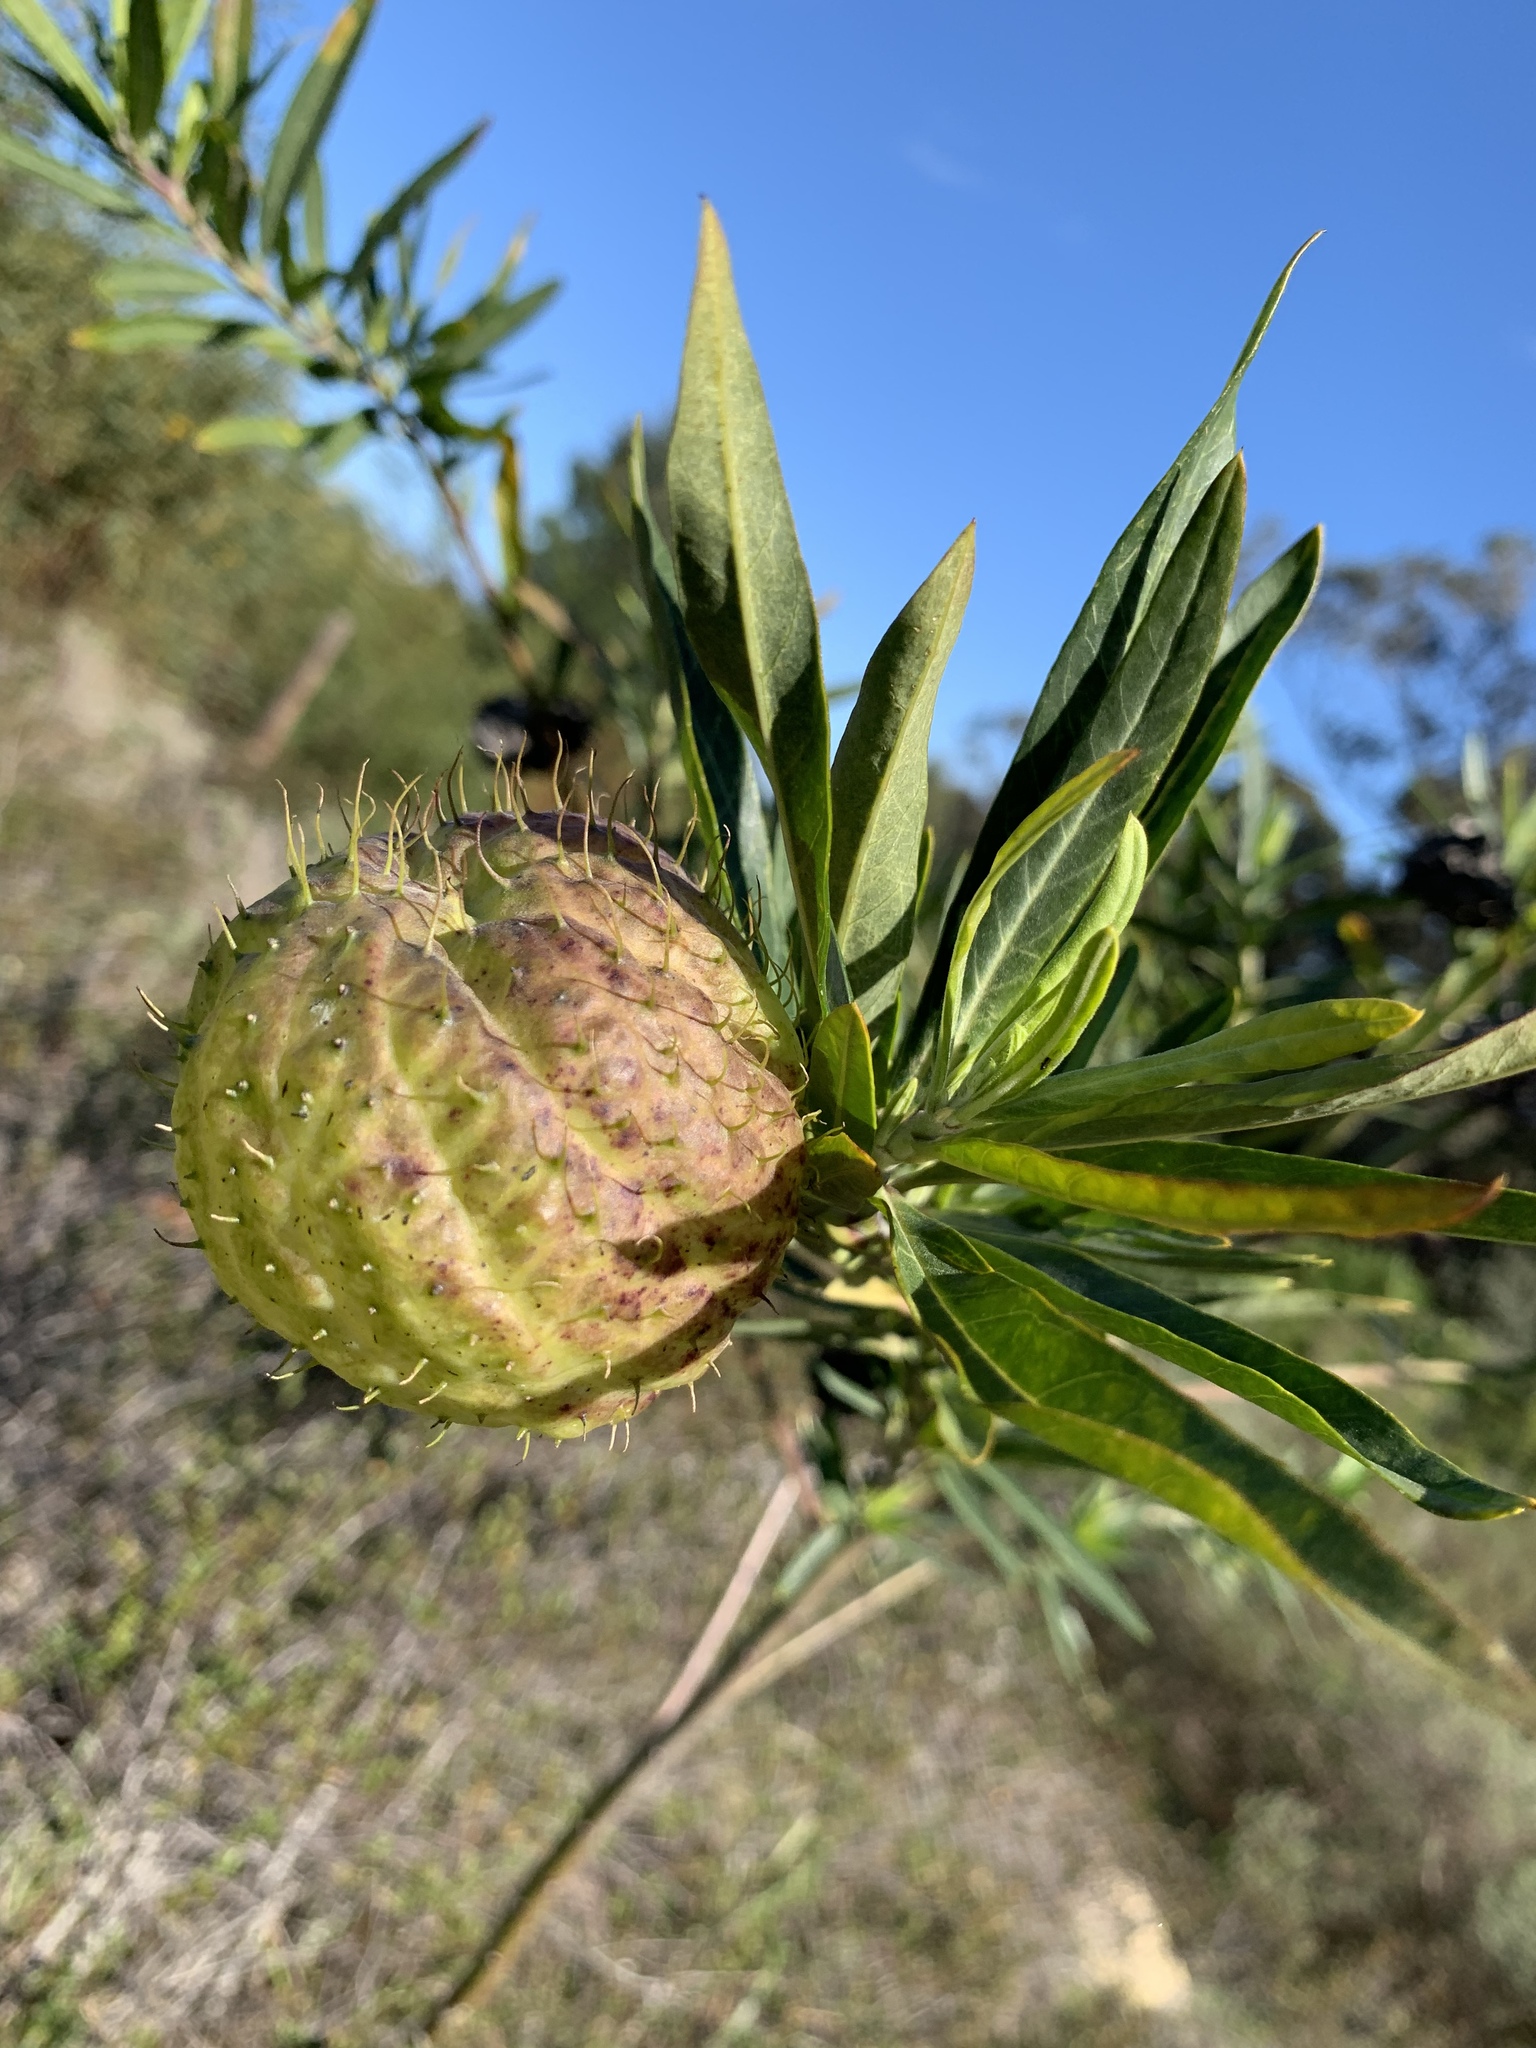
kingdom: Plantae
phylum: Tracheophyta
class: Magnoliopsida
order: Gentianales
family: Apocynaceae
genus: Gomphocarpus
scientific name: Gomphocarpus physocarpus
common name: Balloon cotton bush
